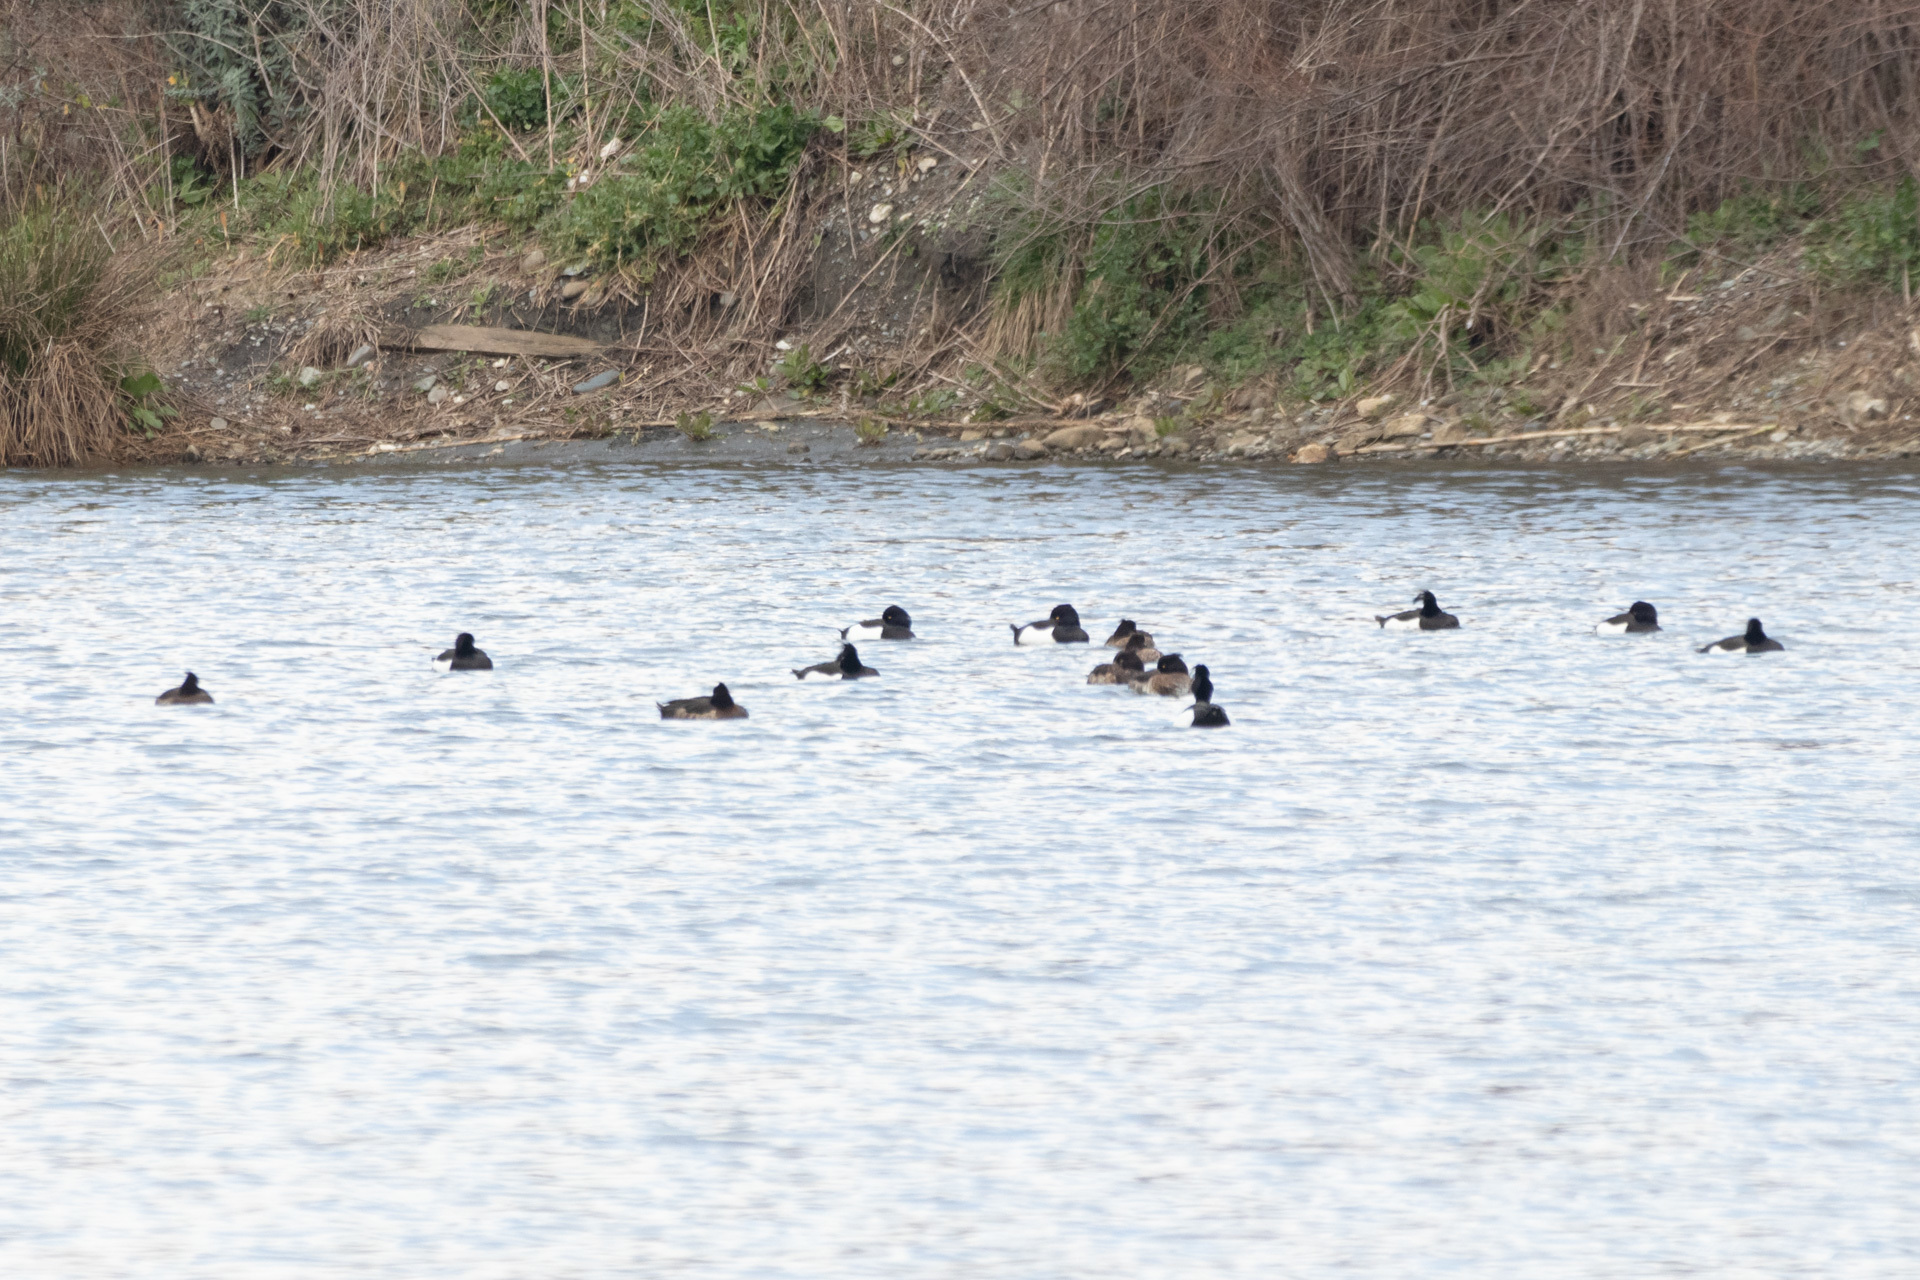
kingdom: Animalia
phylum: Chordata
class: Aves
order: Anseriformes
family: Anatidae
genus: Aythya
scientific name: Aythya fuligula
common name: Tufted duck
